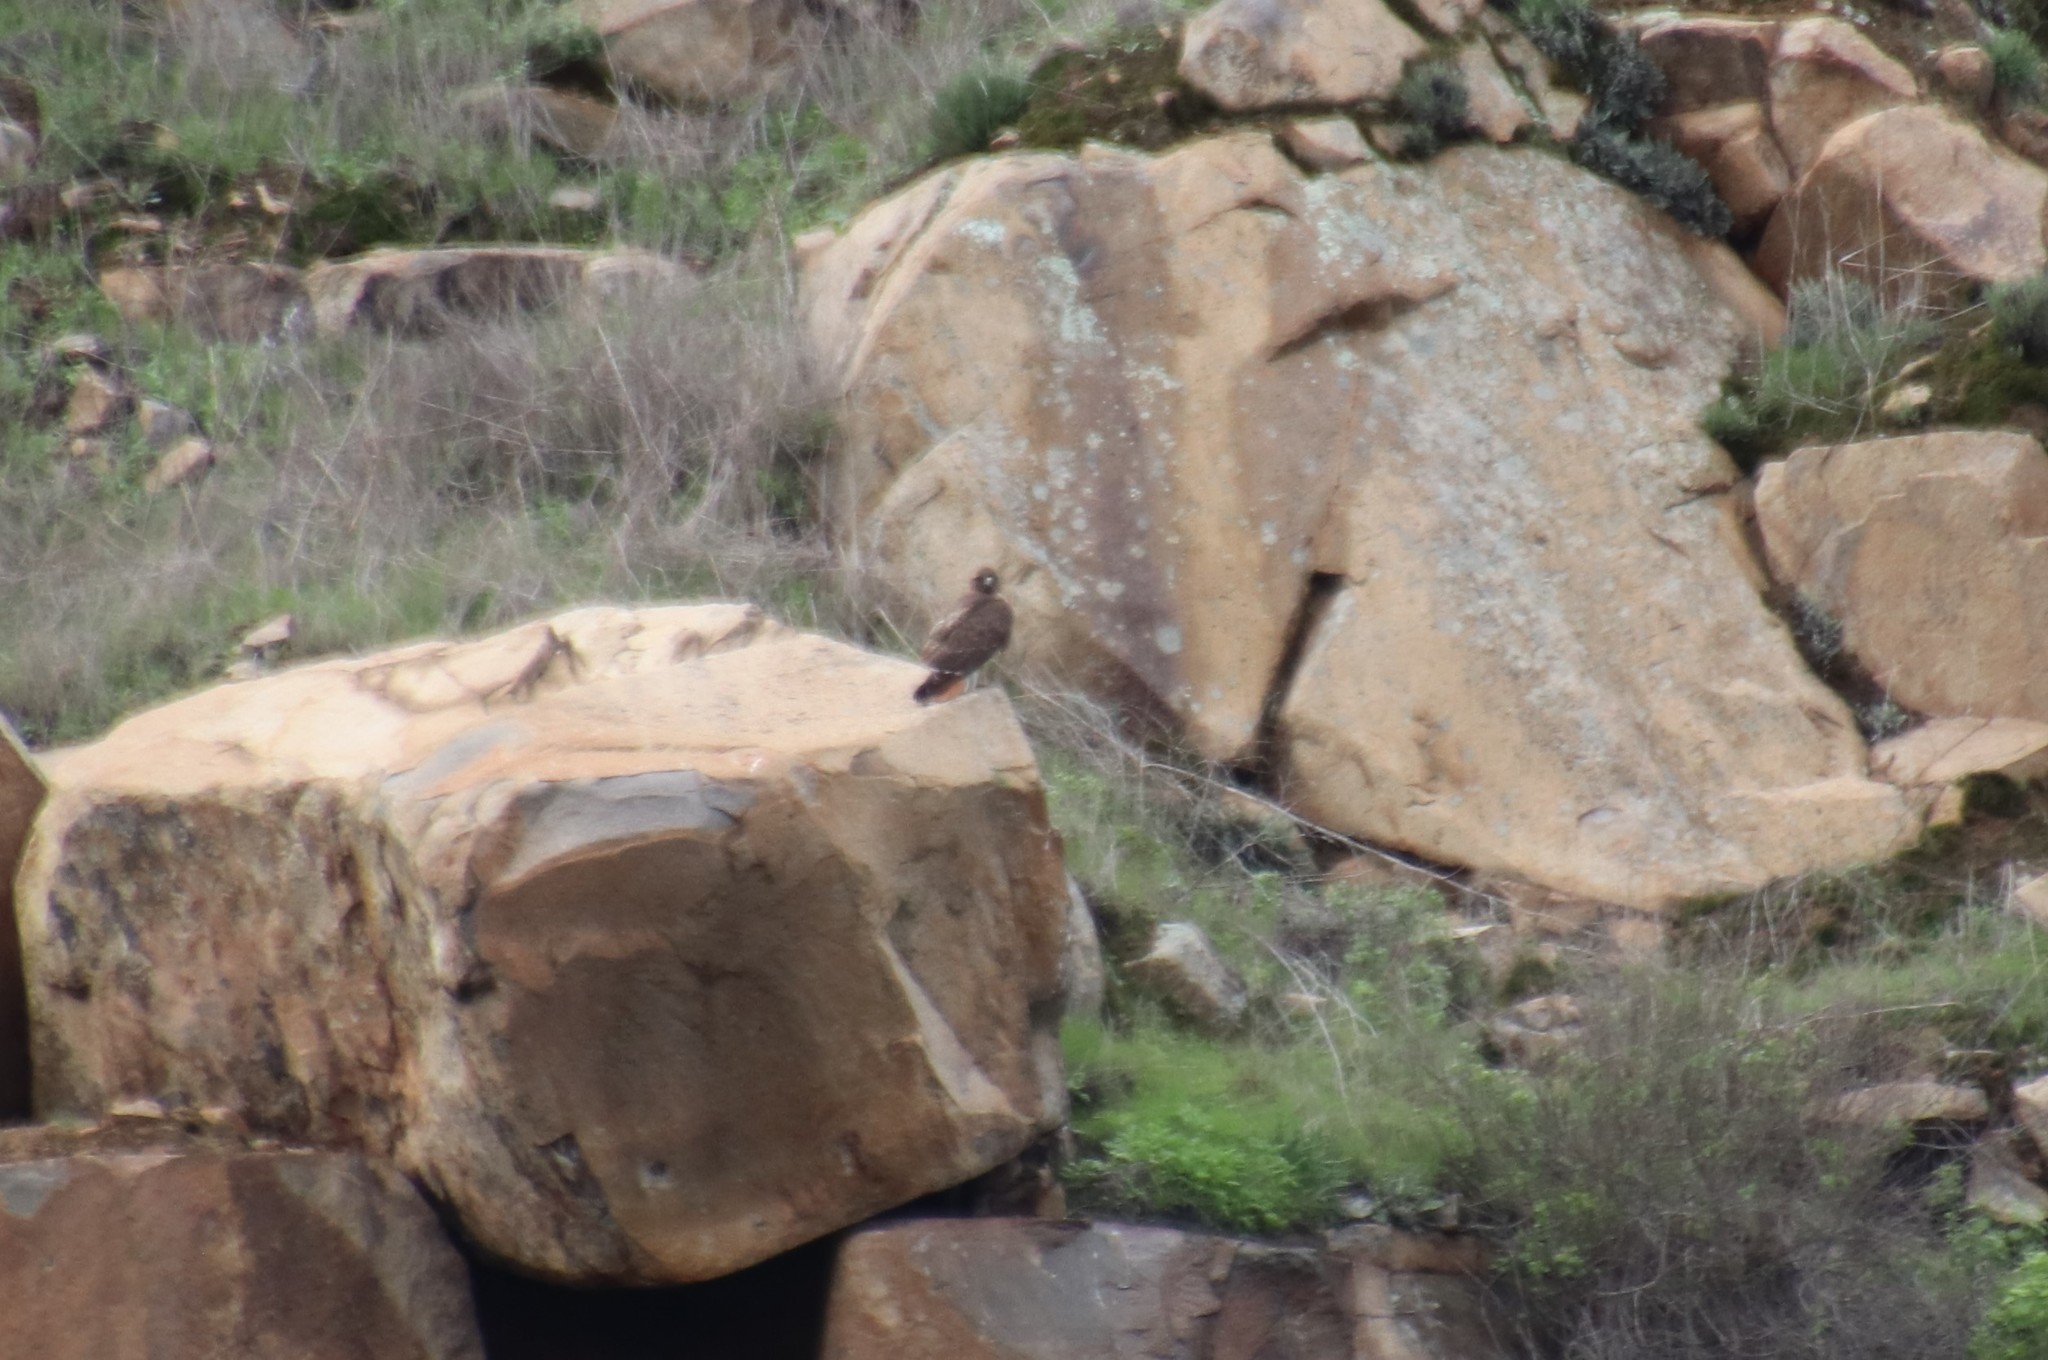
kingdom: Animalia
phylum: Chordata
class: Aves
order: Accipitriformes
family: Accipitridae
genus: Buteo
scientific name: Buteo jamaicensis
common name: Red-tailed hawk
